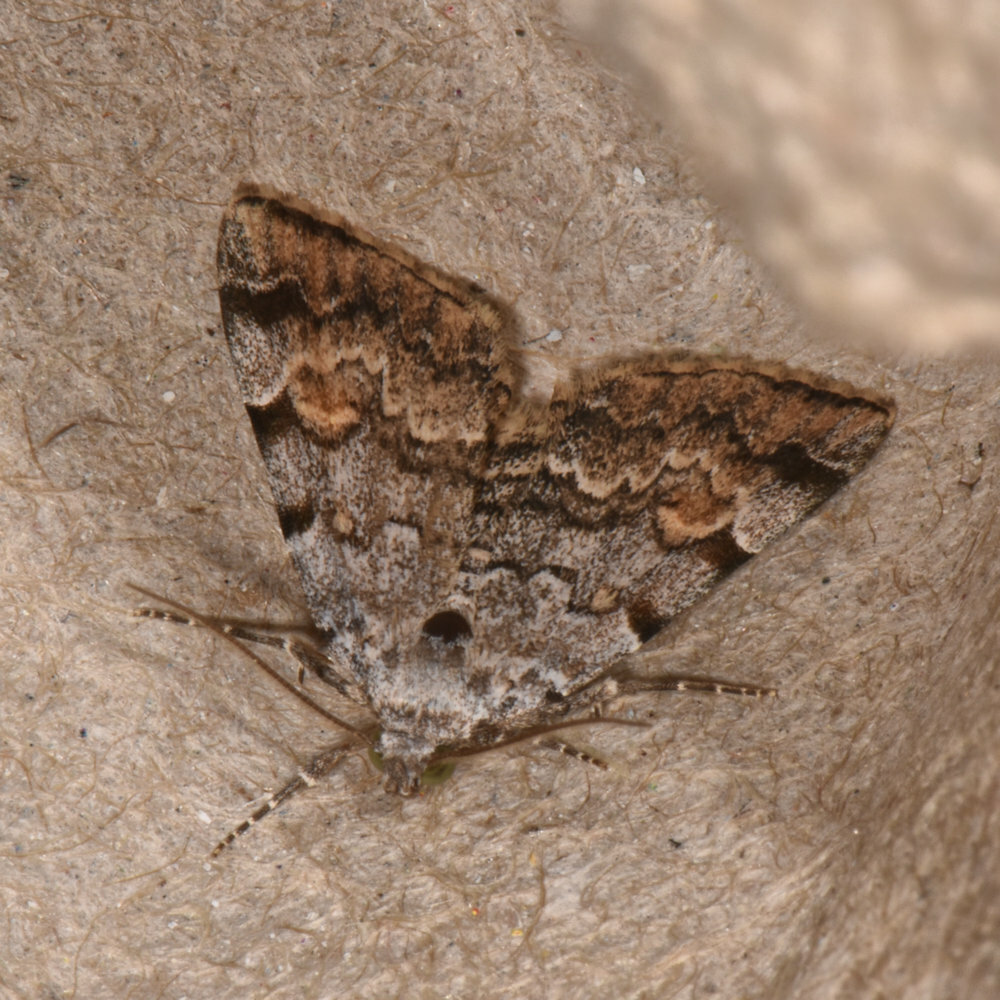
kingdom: Animalia
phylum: Arthropoda
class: Insecta
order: Lepidoptera
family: Erebidae
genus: Idia
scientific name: Idia americalis
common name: American idia moth
